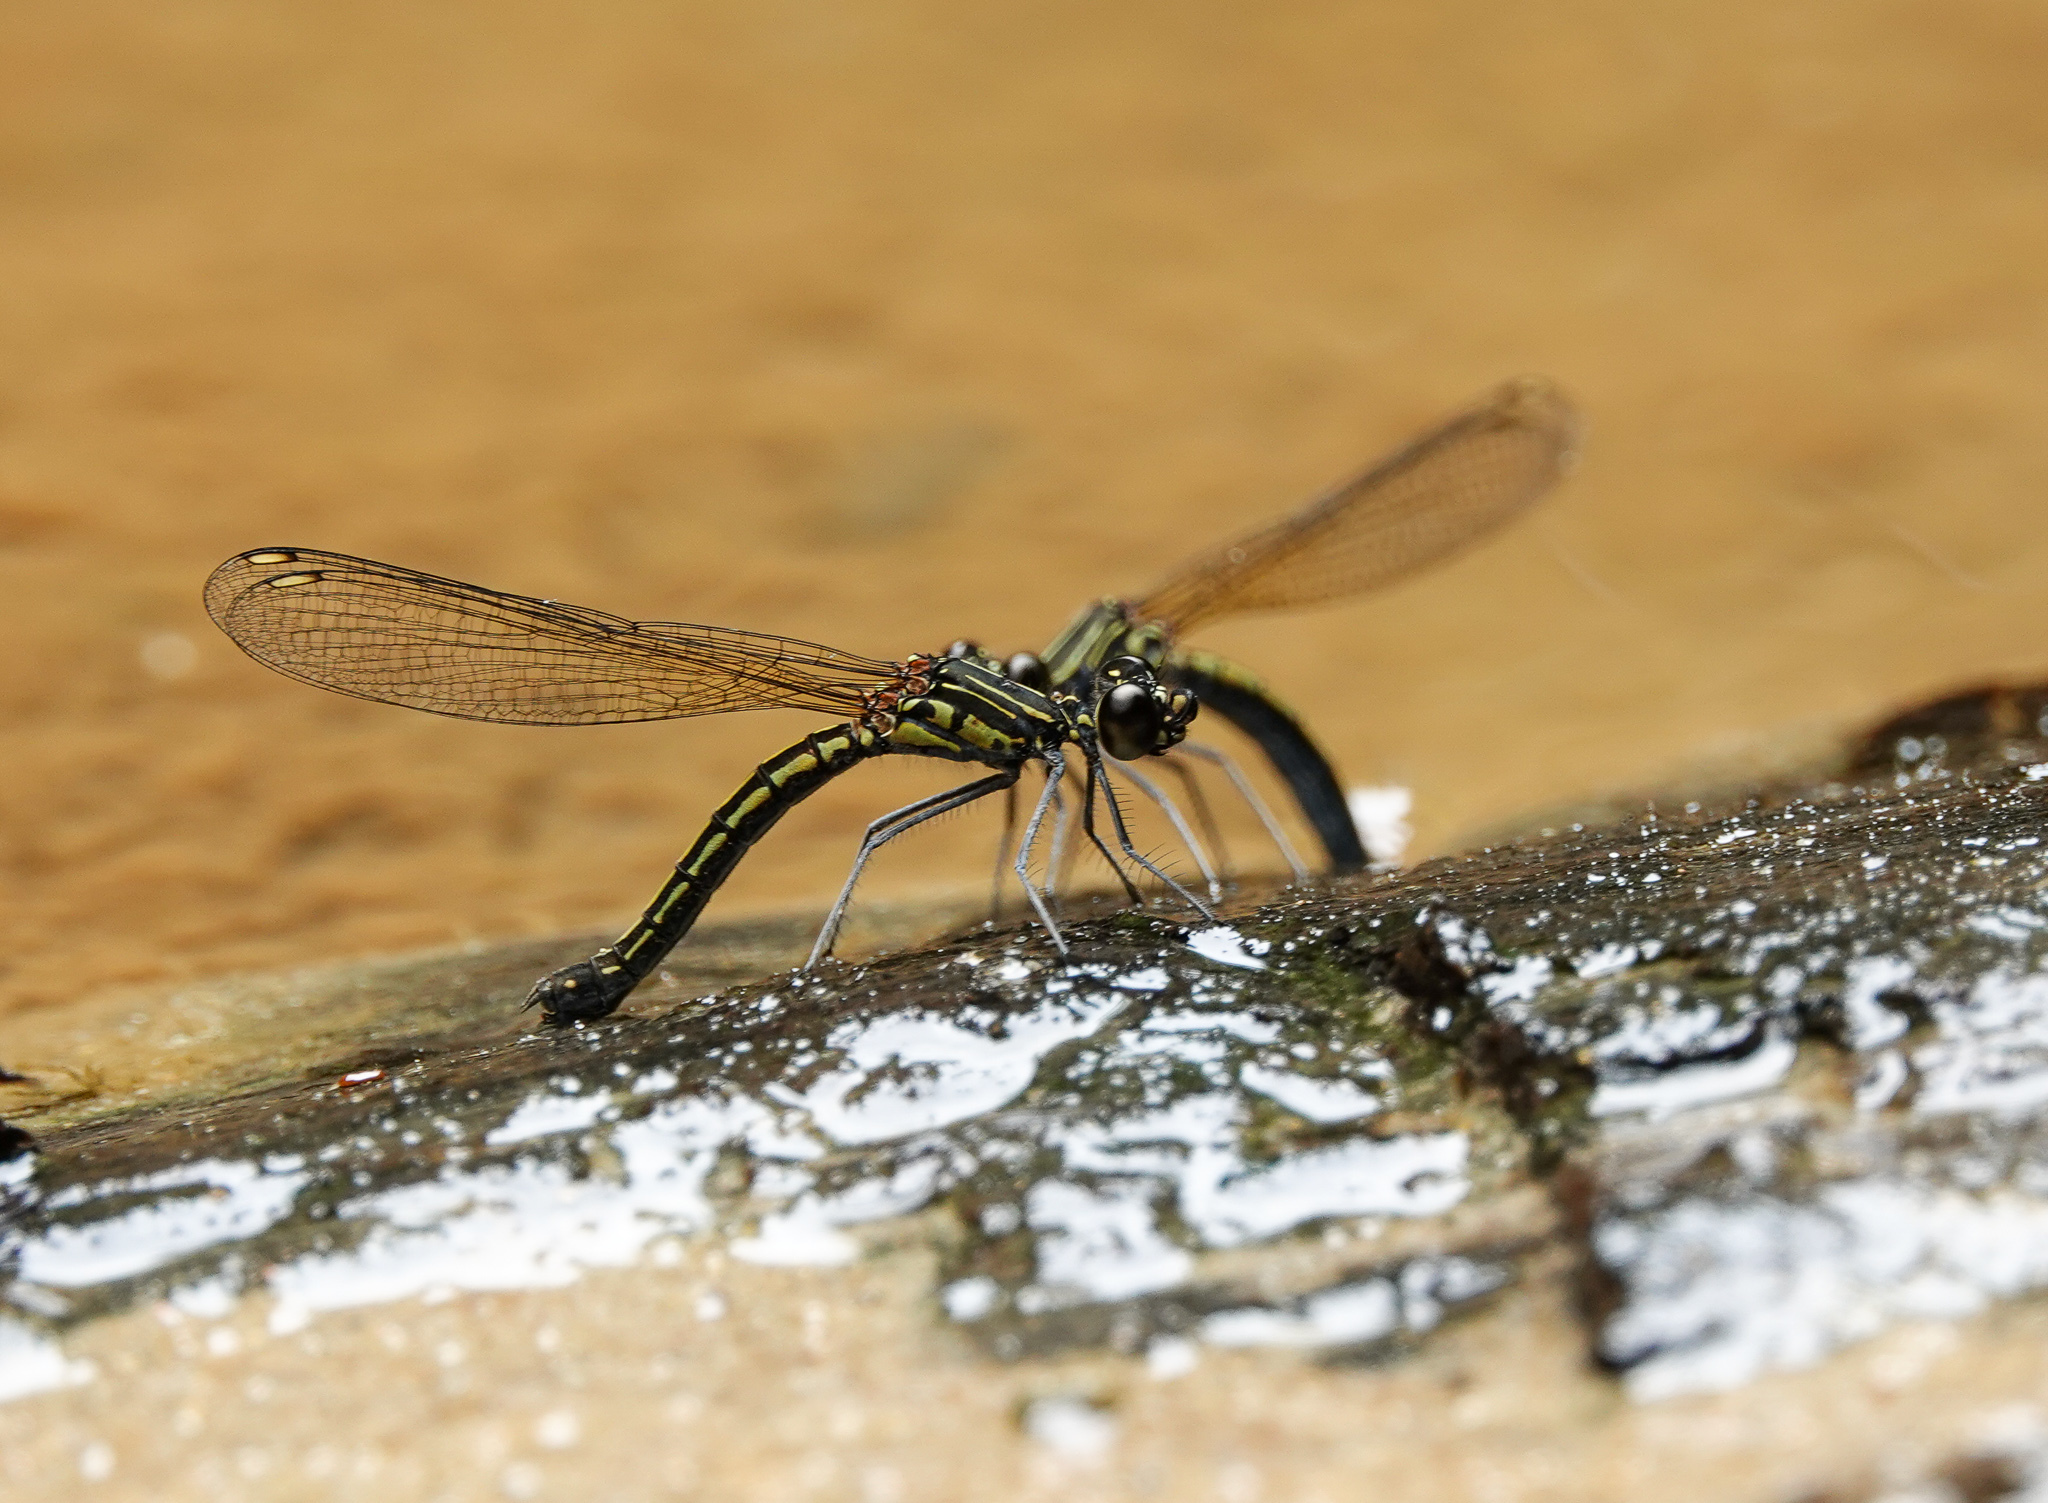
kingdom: Animalia
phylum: Arthropoda
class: Insecta
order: Odonata
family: Chlorocyphidae
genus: Libellago
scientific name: Libellago lineata
